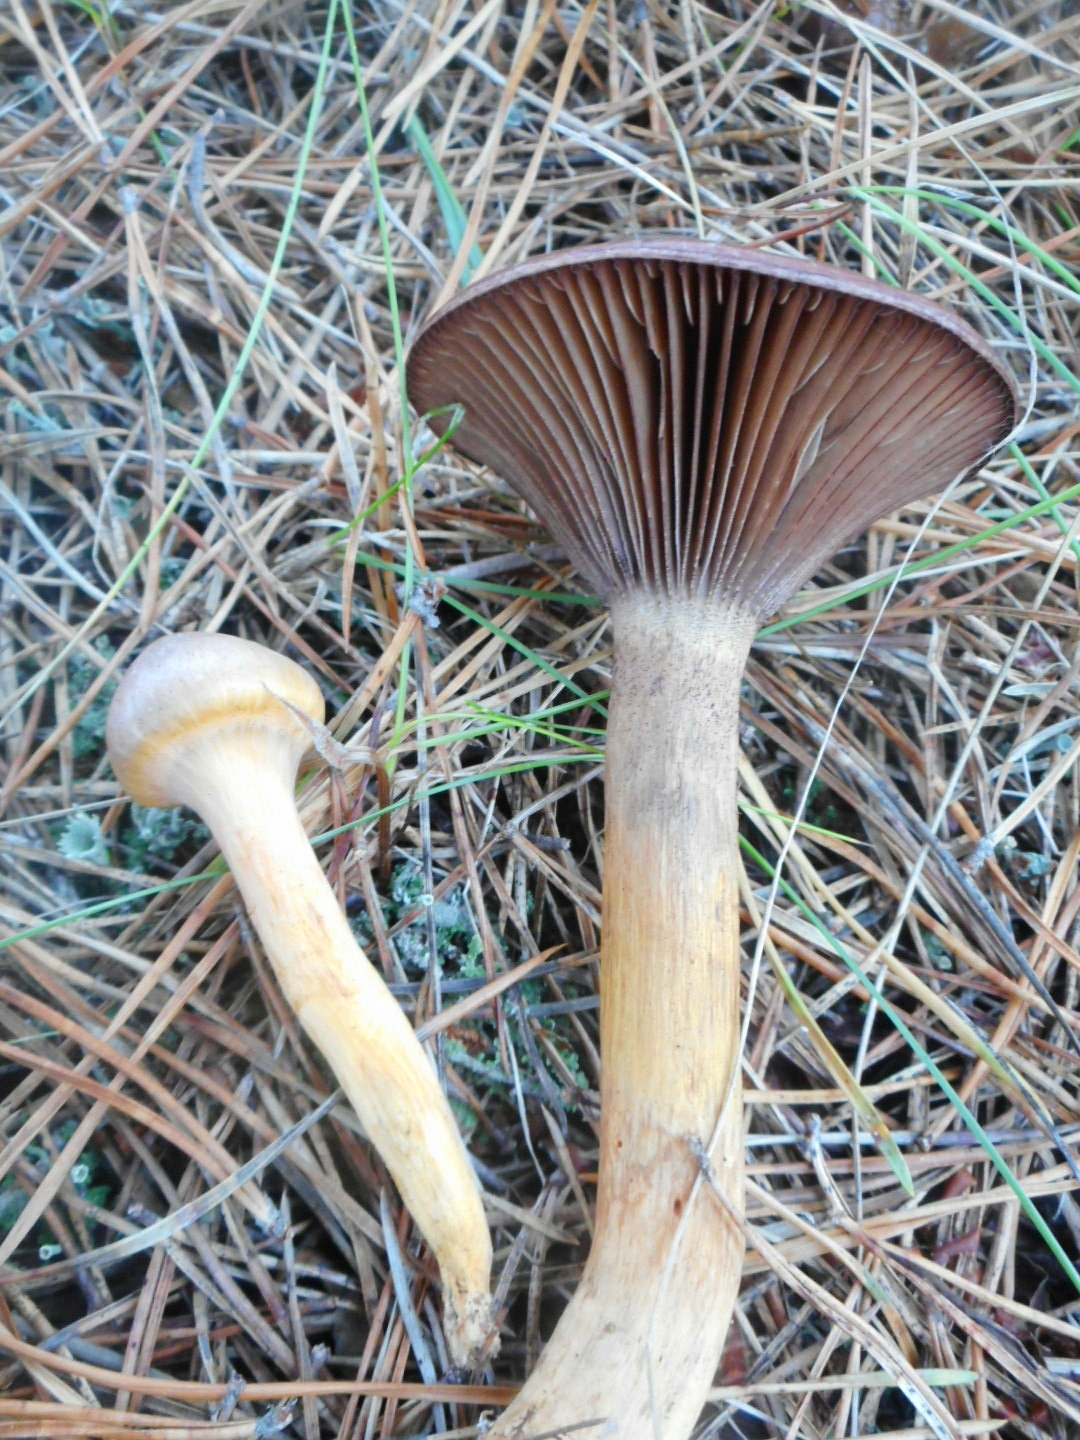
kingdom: Fungi
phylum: Basidiomycota
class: Agaricomycetes
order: Boletales
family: Gomphidiaceae
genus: Chroogomphus
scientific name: Chroogomphus rutilus
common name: Copper spike
